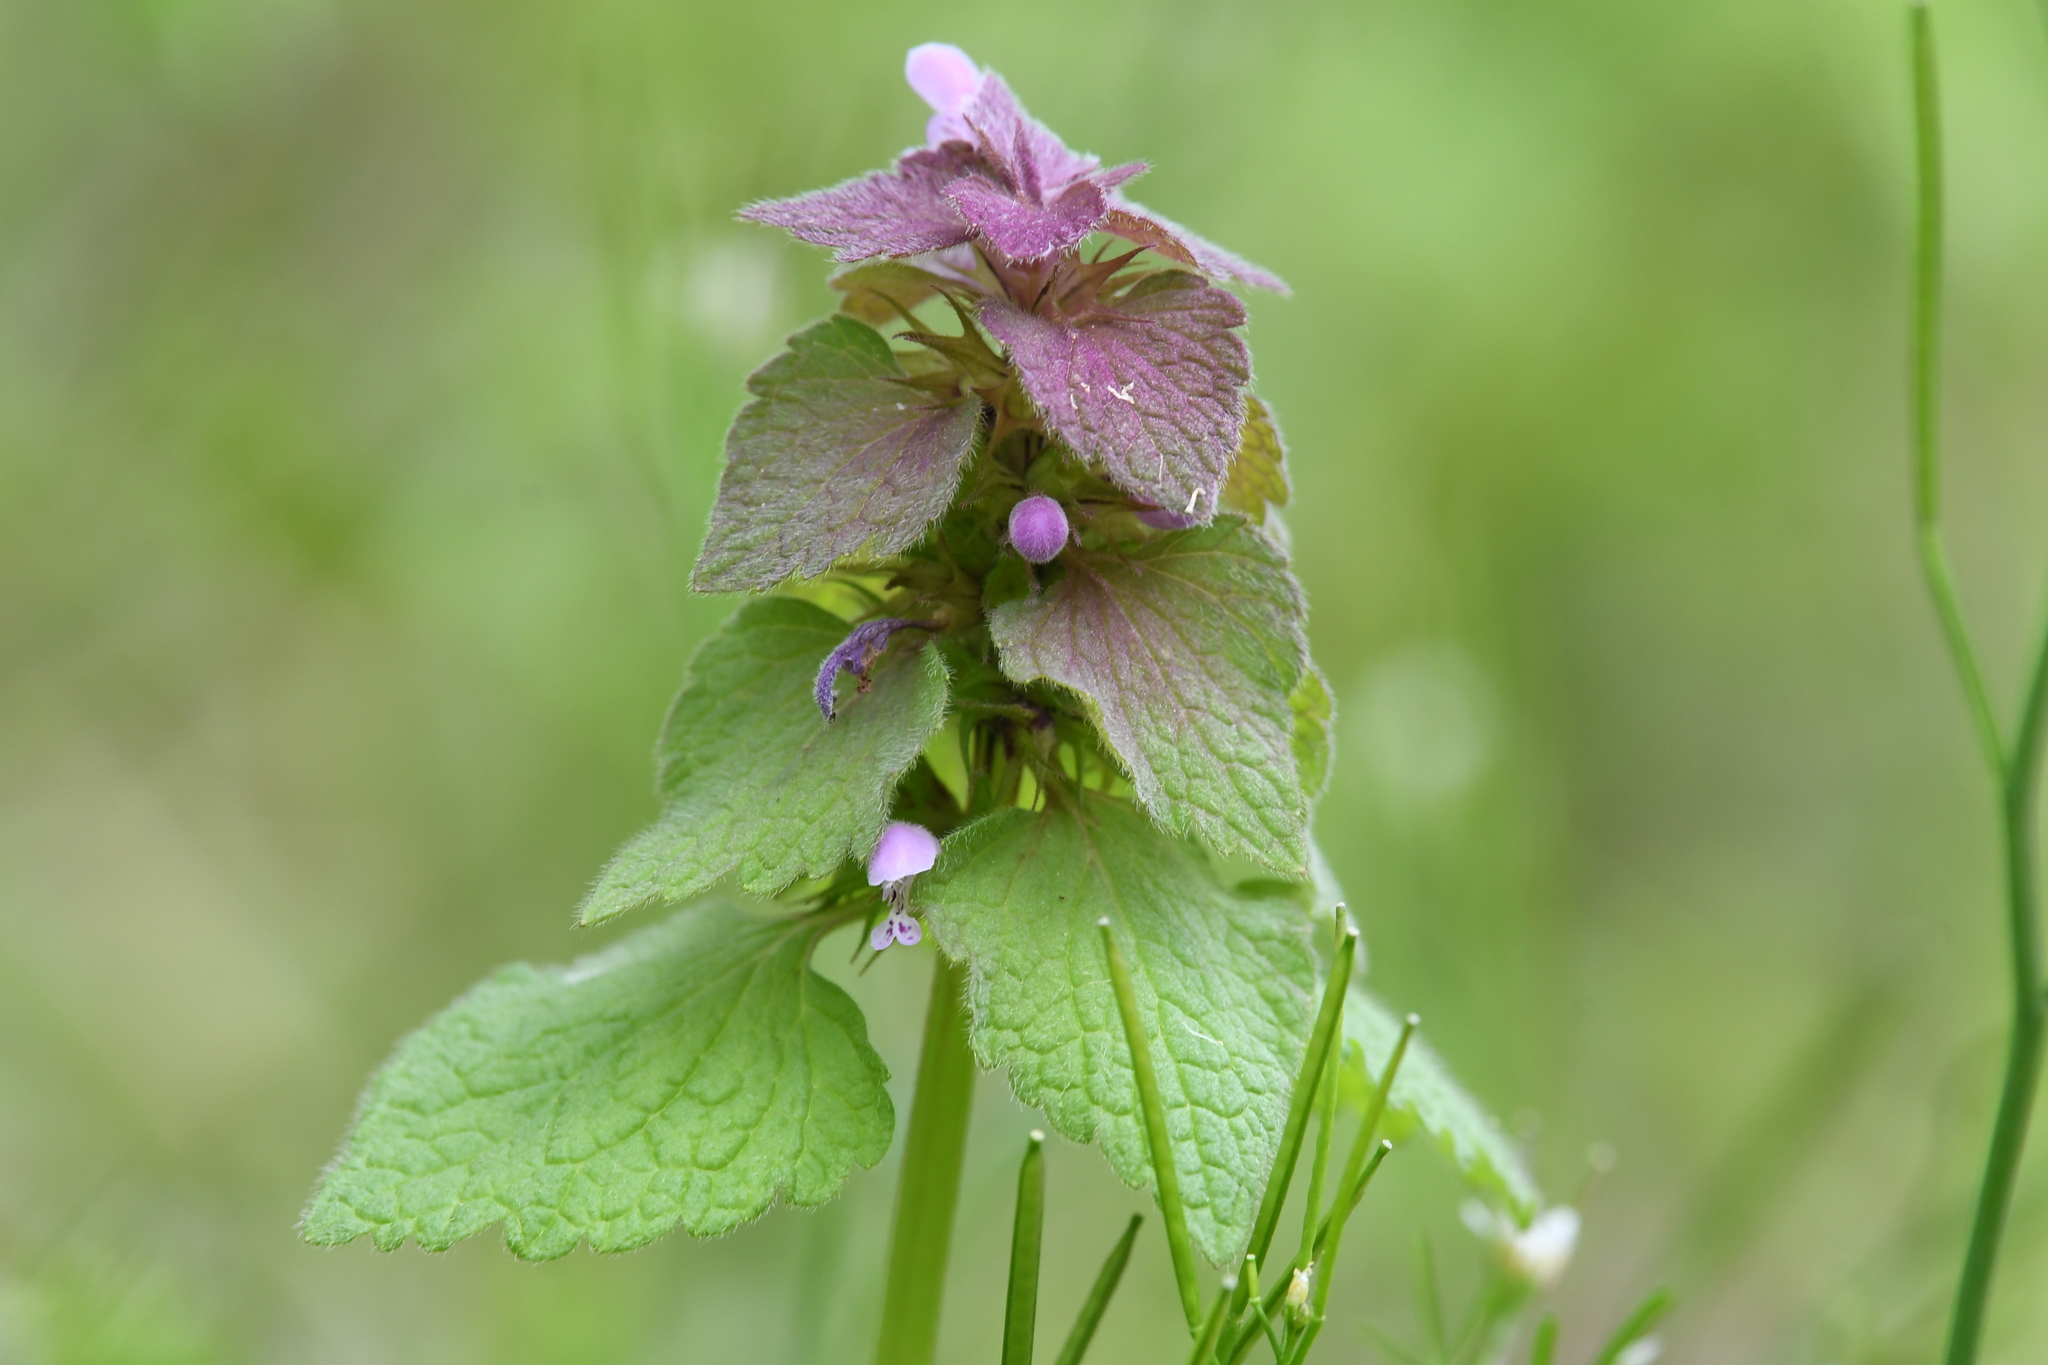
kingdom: Plantae
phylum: Tracheophyta
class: Magnoliopsida
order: Lamiales
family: Lamiaceae
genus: Lamium
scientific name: Lamium purpureum
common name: Red dead-nettle
